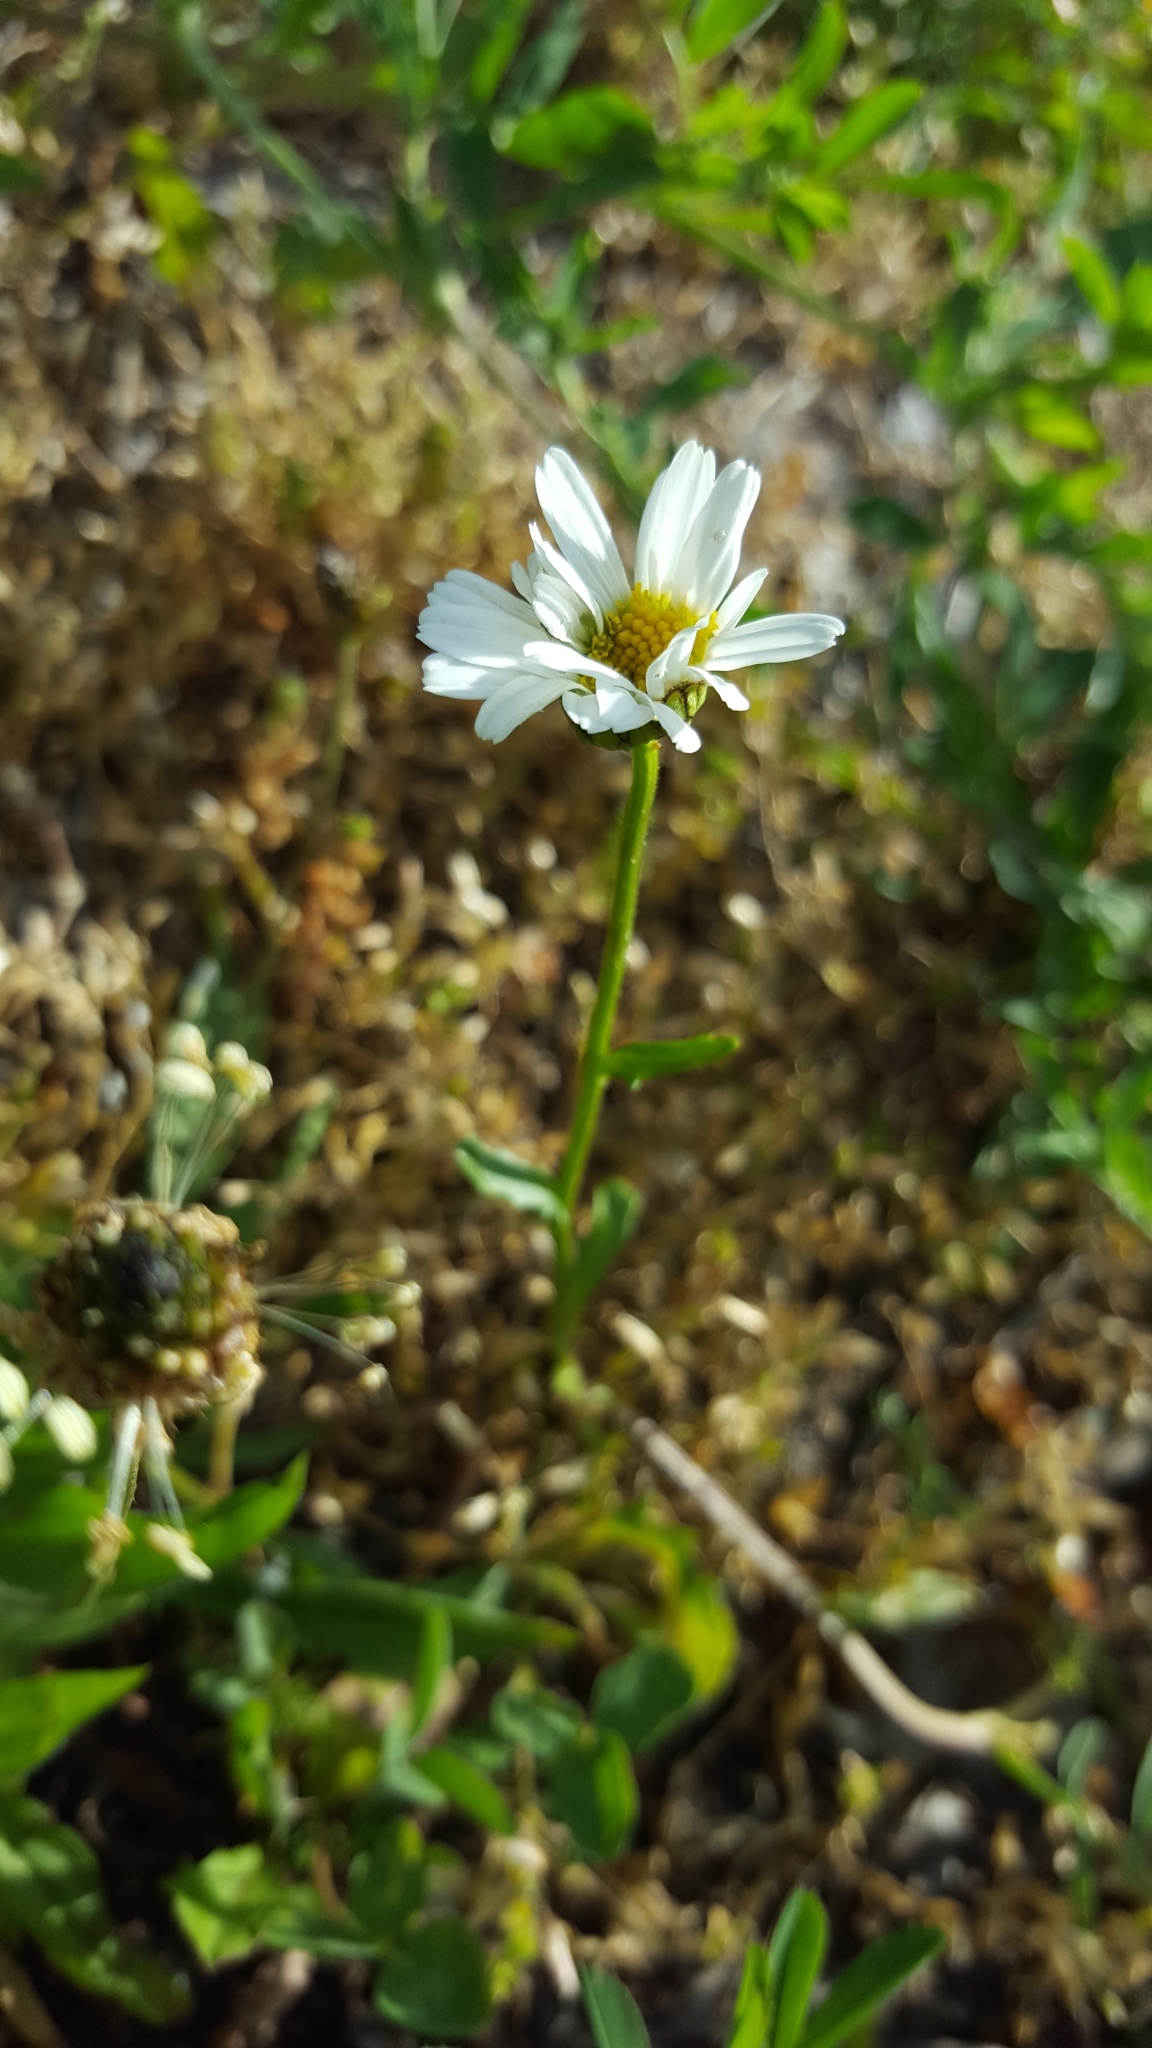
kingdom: Plantae
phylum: Tracheophyta
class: Magnoliopsida
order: Asterales
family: Asteraceae
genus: Leucanthemum
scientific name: Leucanthemum vulgare
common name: Oxeye daisy
